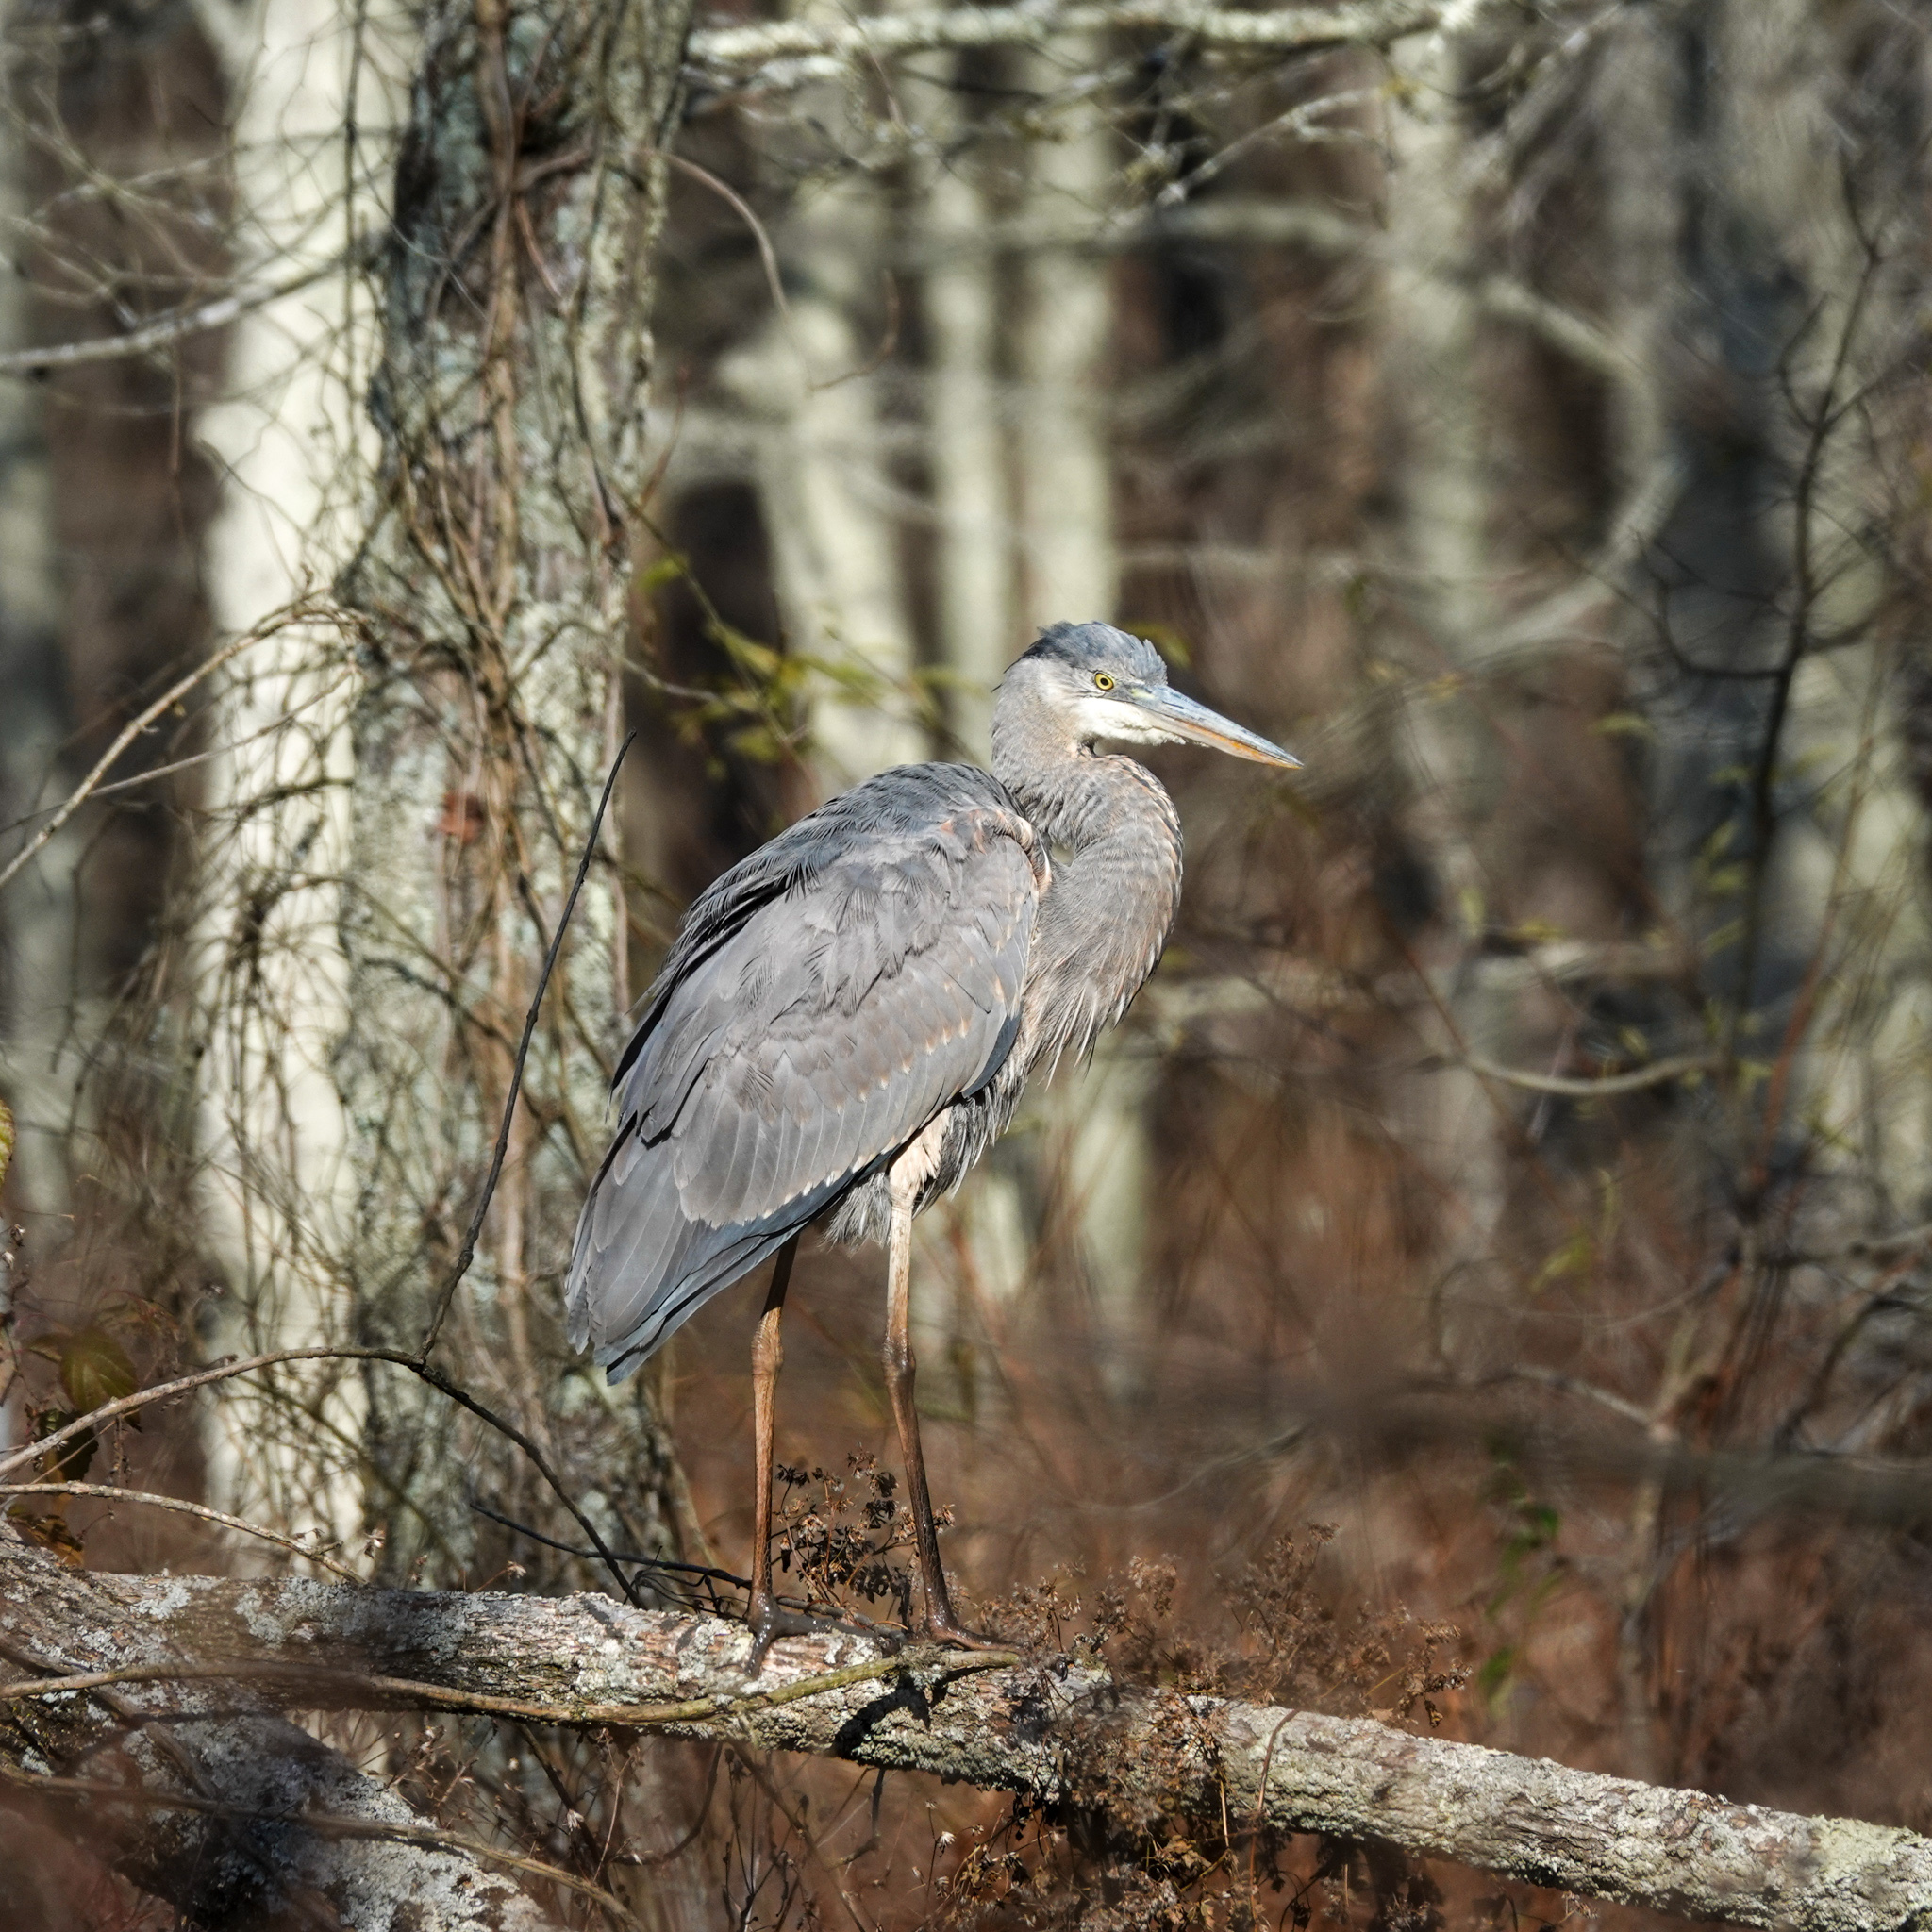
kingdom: Animalia
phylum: Chordata
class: Aves
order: Pelecaniformes
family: Ardeidae
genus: Ardea
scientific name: Ardea herodias
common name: Great blue heron
